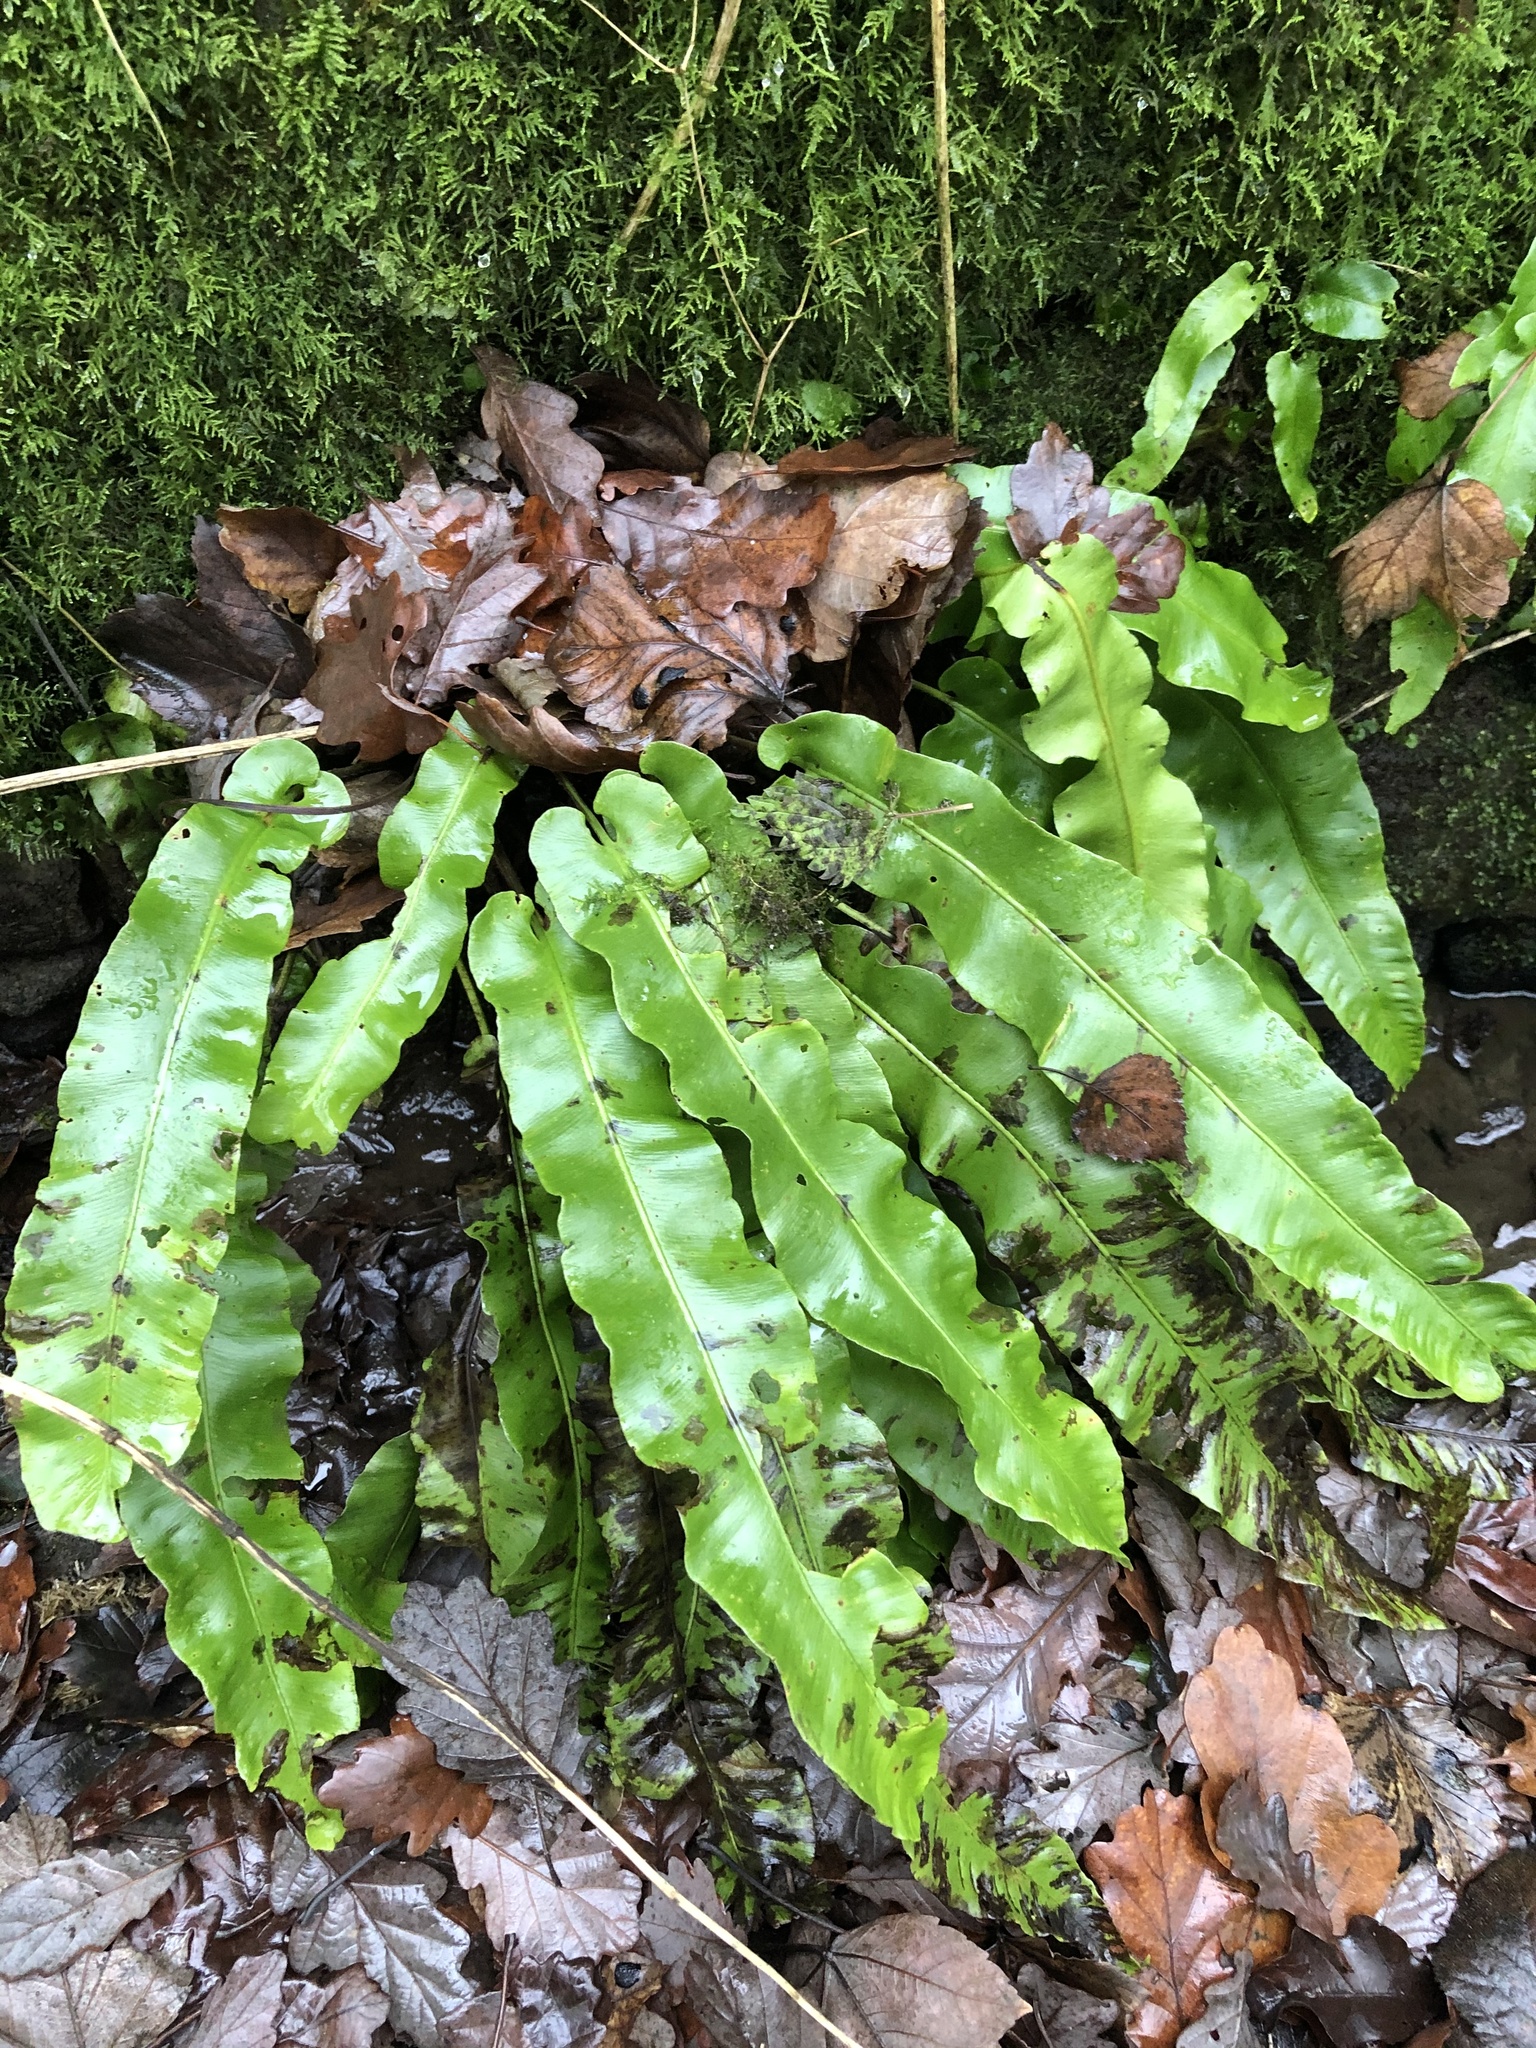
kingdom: Plantae
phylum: Tracheophyta
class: Polypodiopsida
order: Polypodiales
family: Aspleniaceae
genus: Asplenium
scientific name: Asplenium scolopendrium
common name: Hart's-tongue fern
